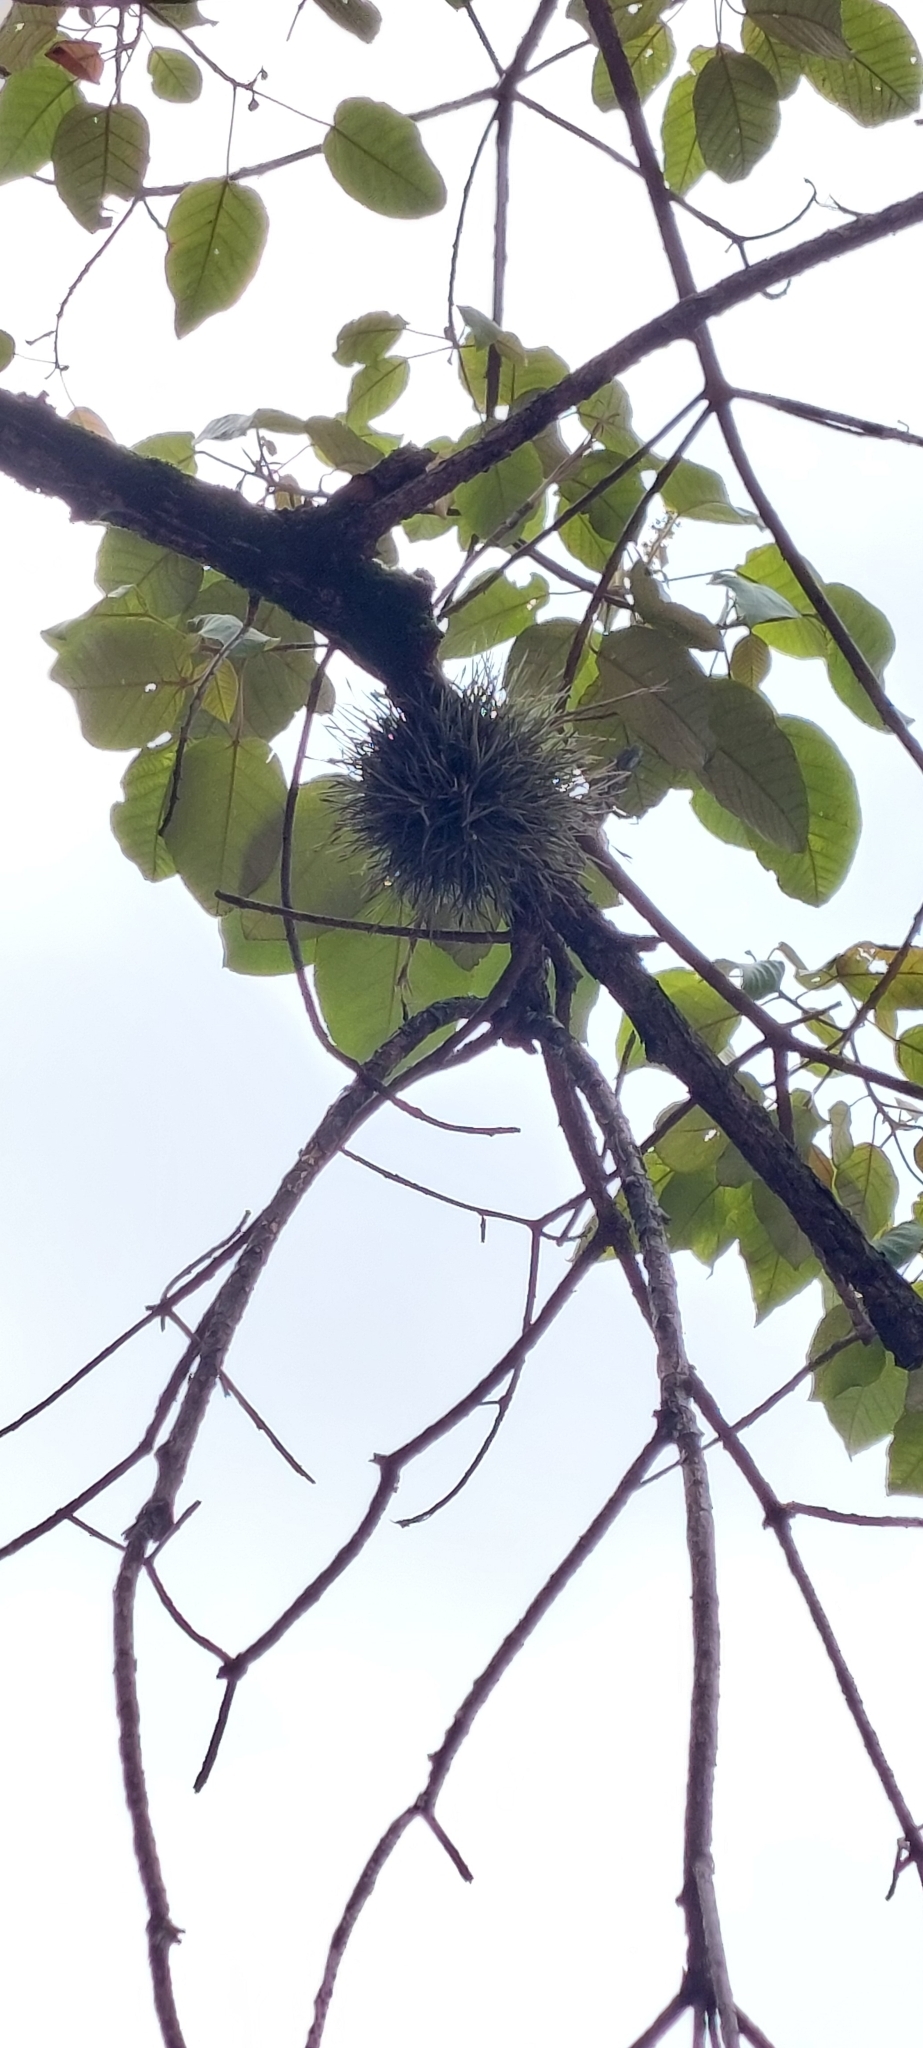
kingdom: Plantae
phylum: Tracheophyta
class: Liliopsida
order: Poales
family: Bromeliaceae
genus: Tillandsia
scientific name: Tillandsia recurvata
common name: Small ballmoss
